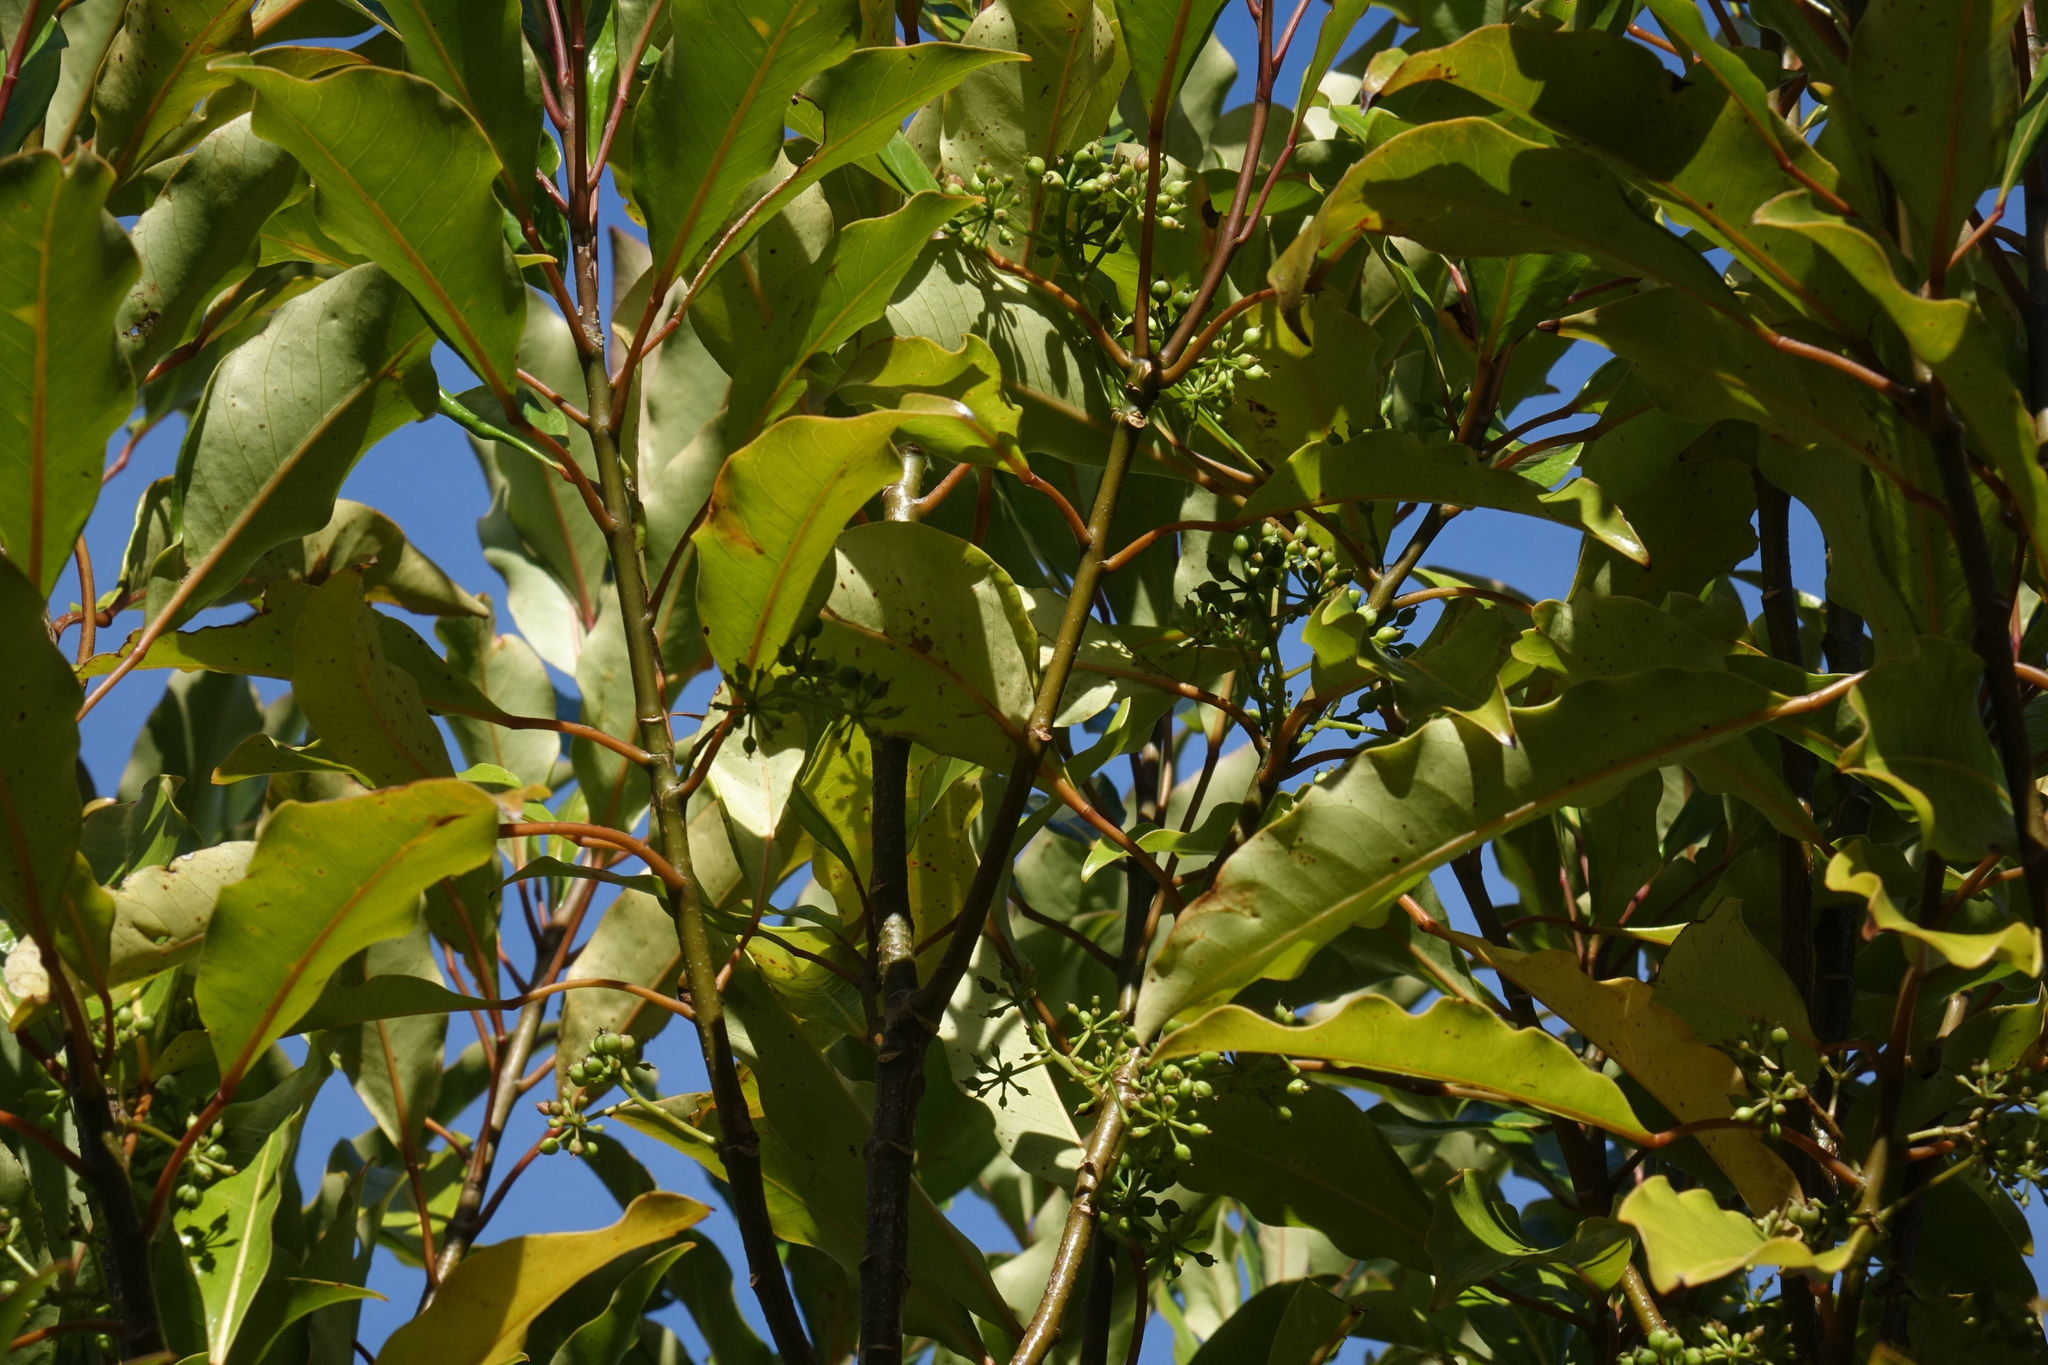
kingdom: Plantae
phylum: Tracheophyta
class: Magnoliopsida
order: Apiales
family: Araliaceae
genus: Raukaua
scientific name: Raukaua edgerleyi
